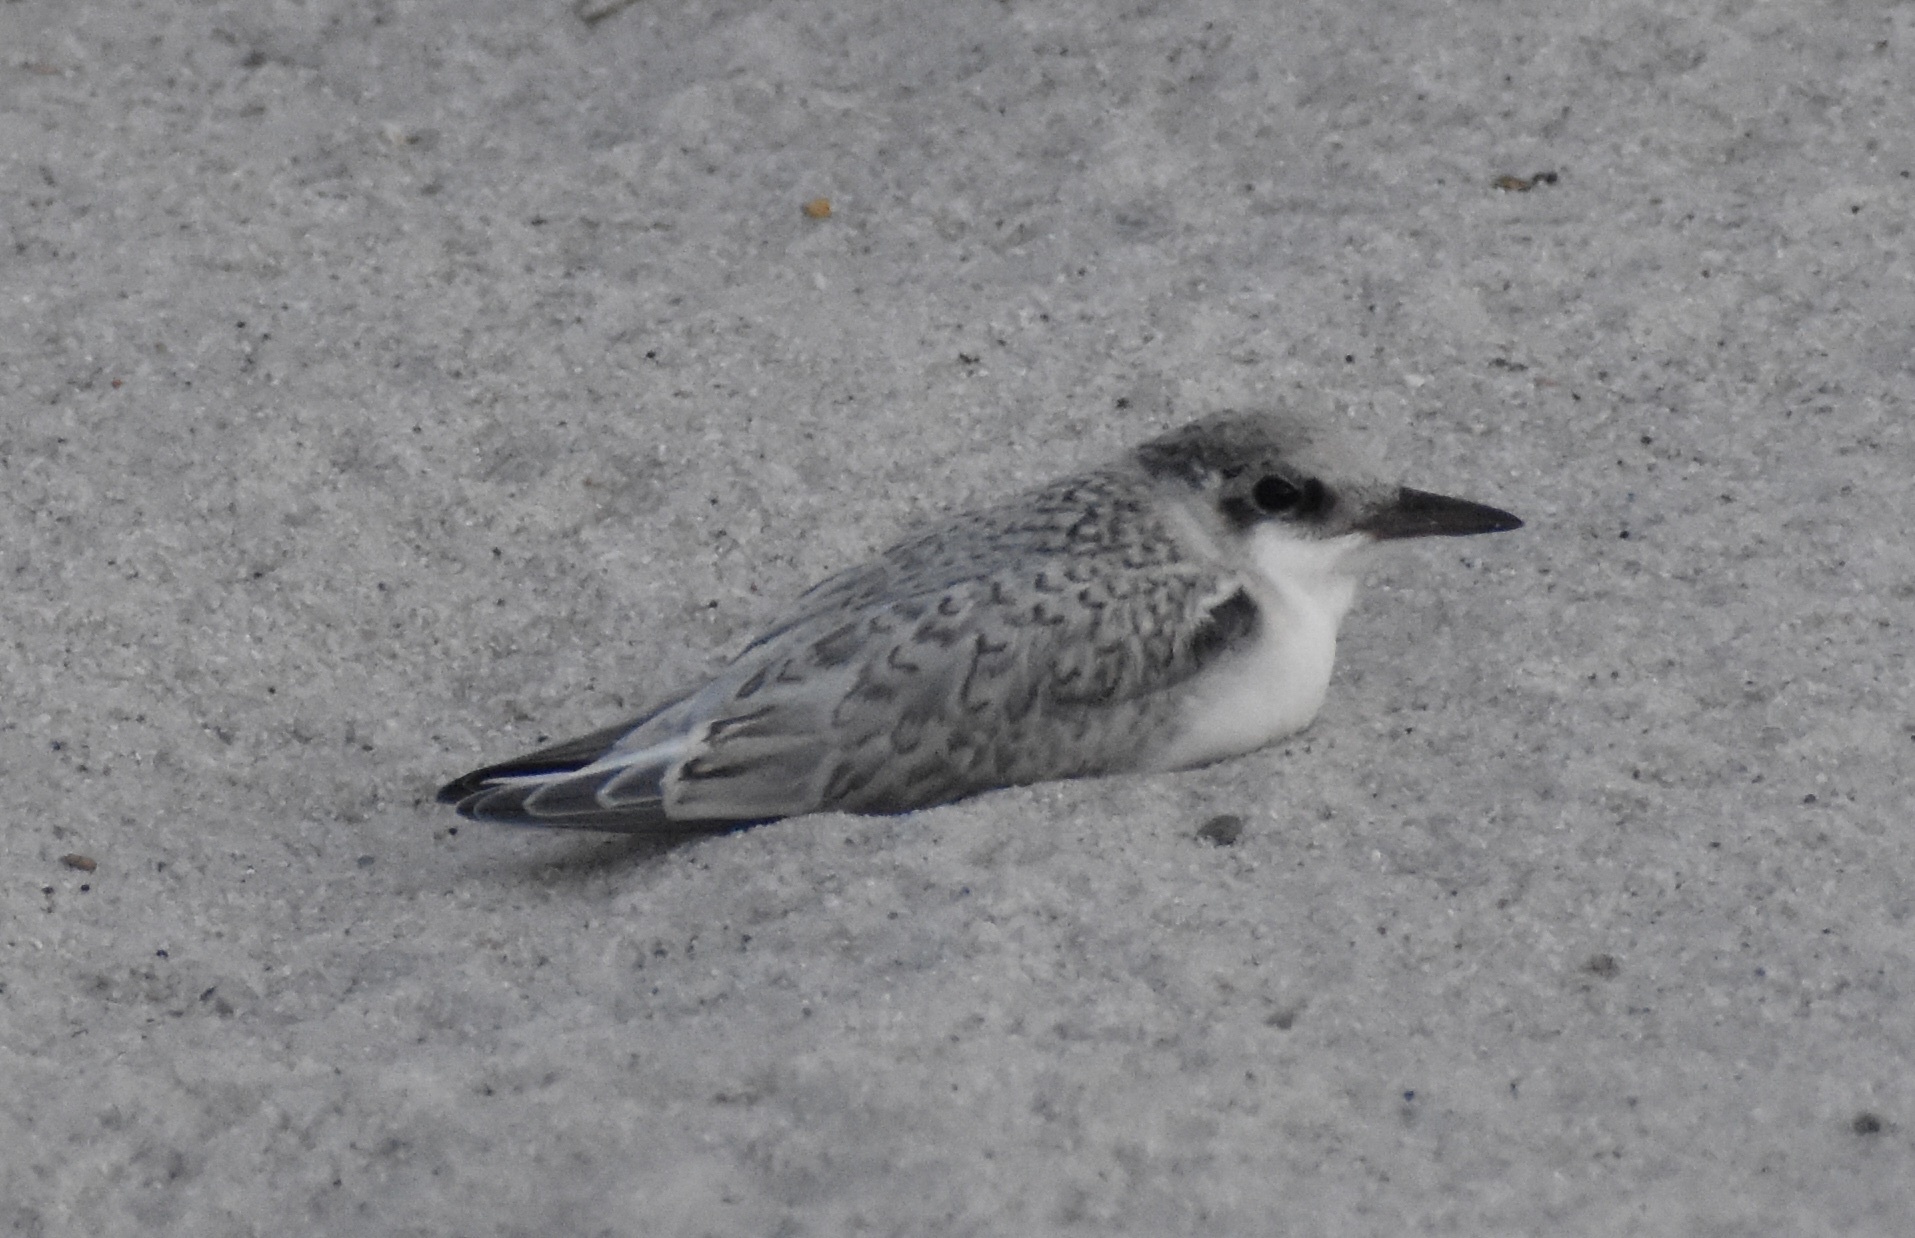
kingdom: Animalia
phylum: Chordata
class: Aves
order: Charadriiformes
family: Laridae
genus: Sternula
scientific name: Sternula antillarum
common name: Least tern
